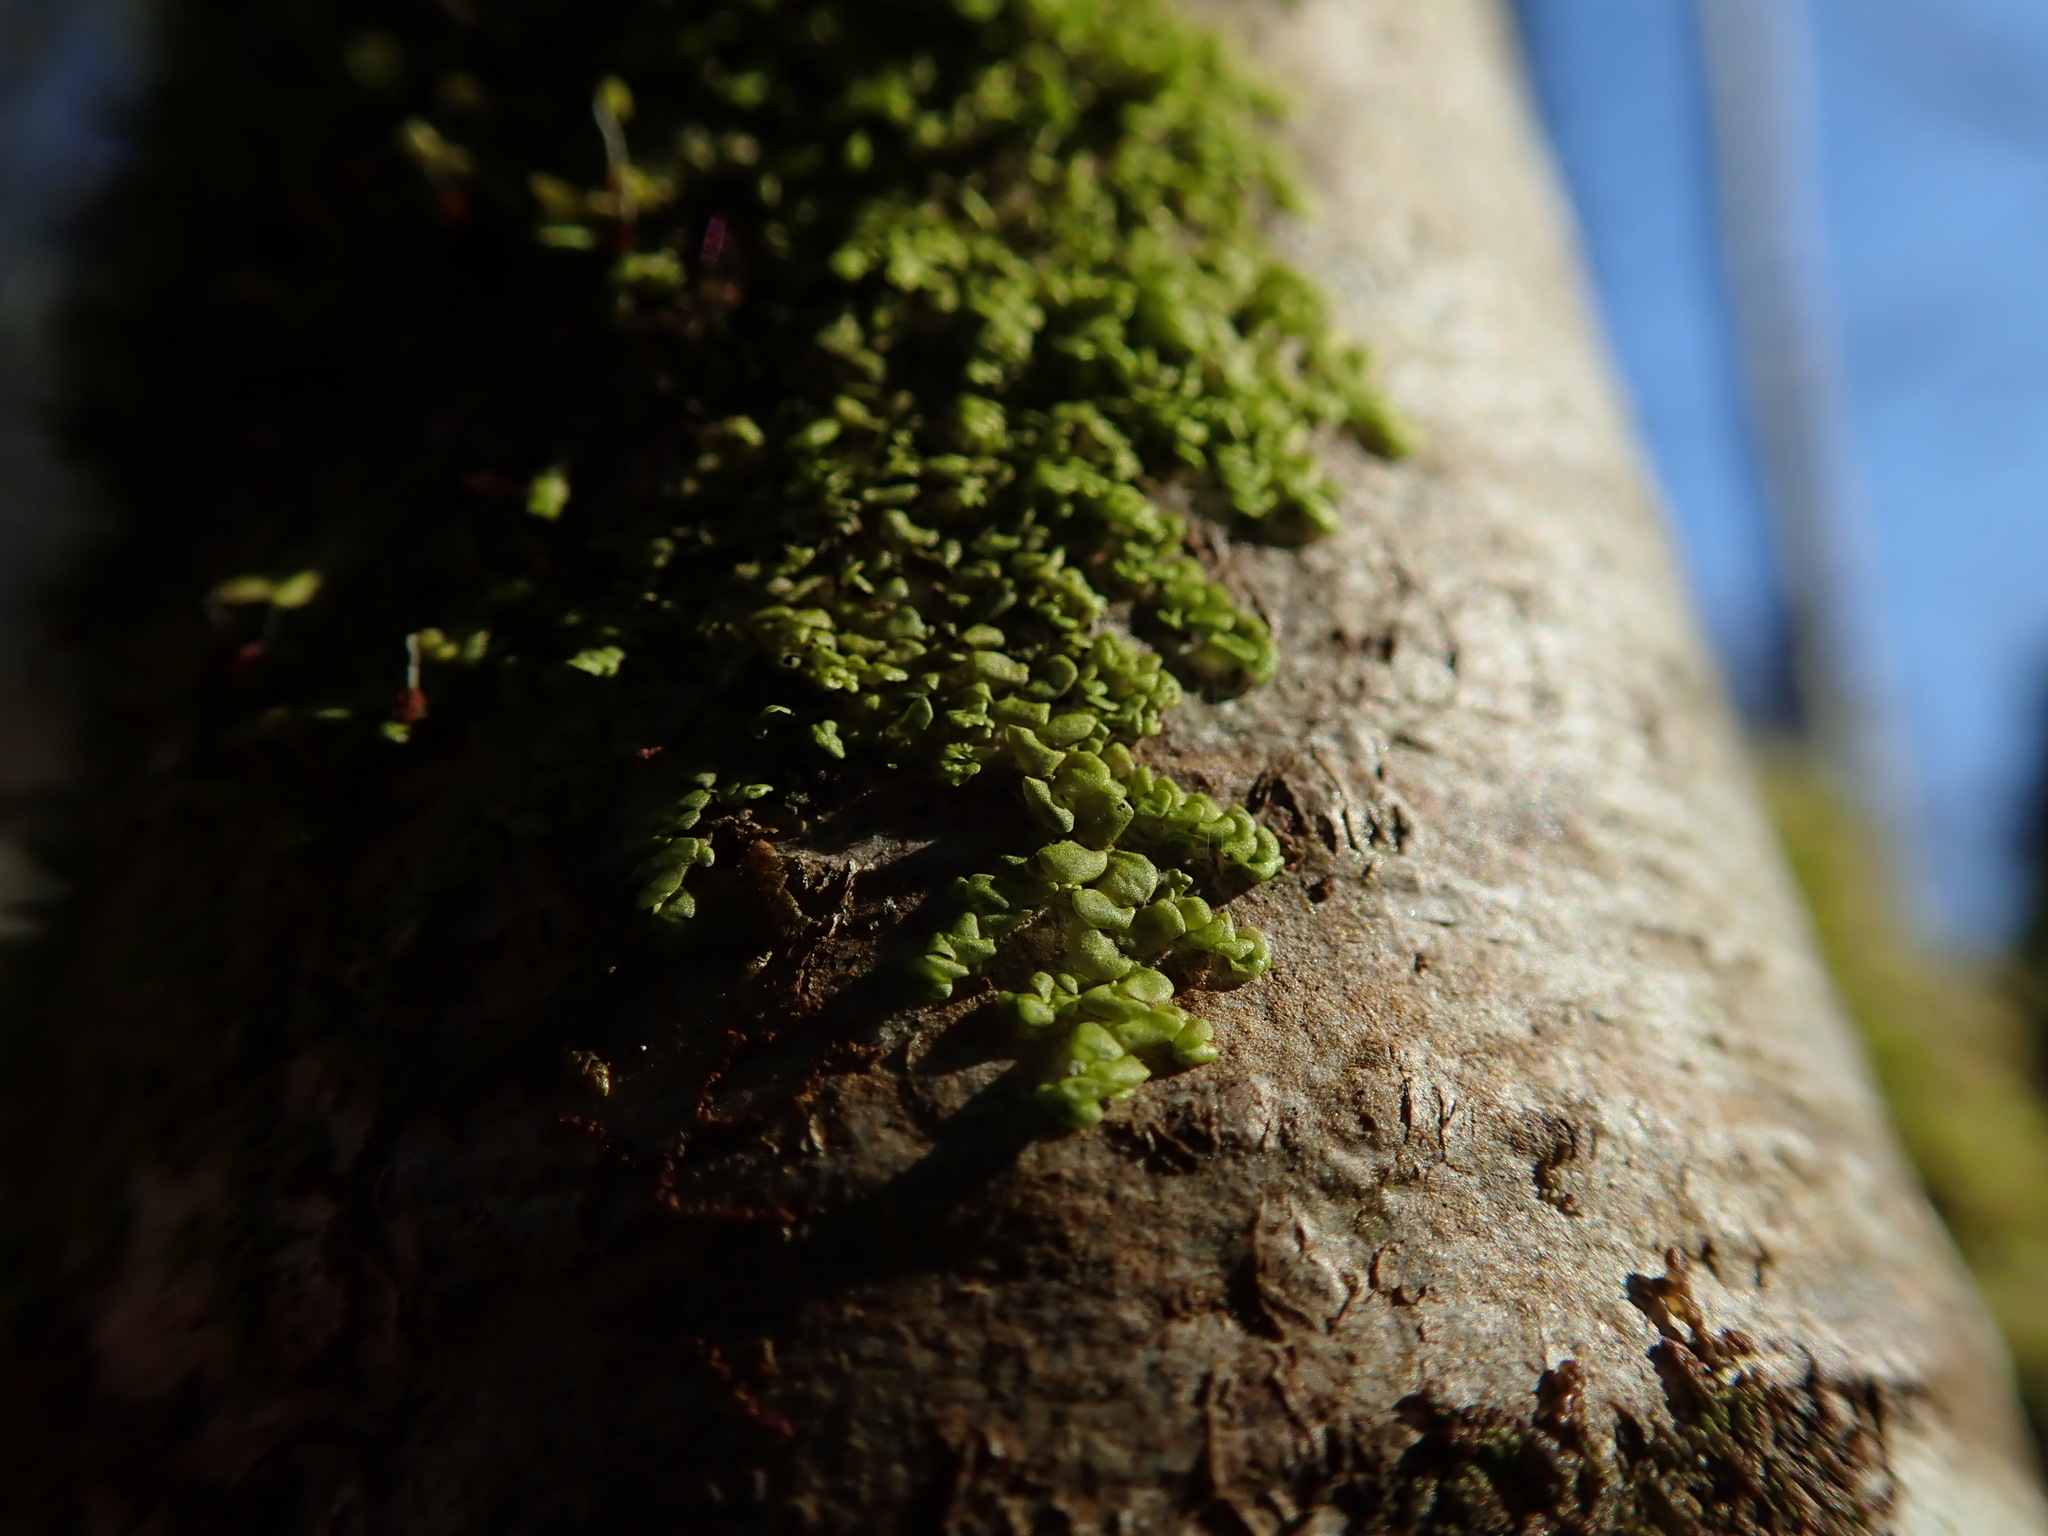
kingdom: Plantae
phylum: Marchantiophyta
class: Jungermanniopsida
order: Porellales
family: Radulaceae
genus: Radula
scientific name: Radula complanata
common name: Flat-leaved scalewort
